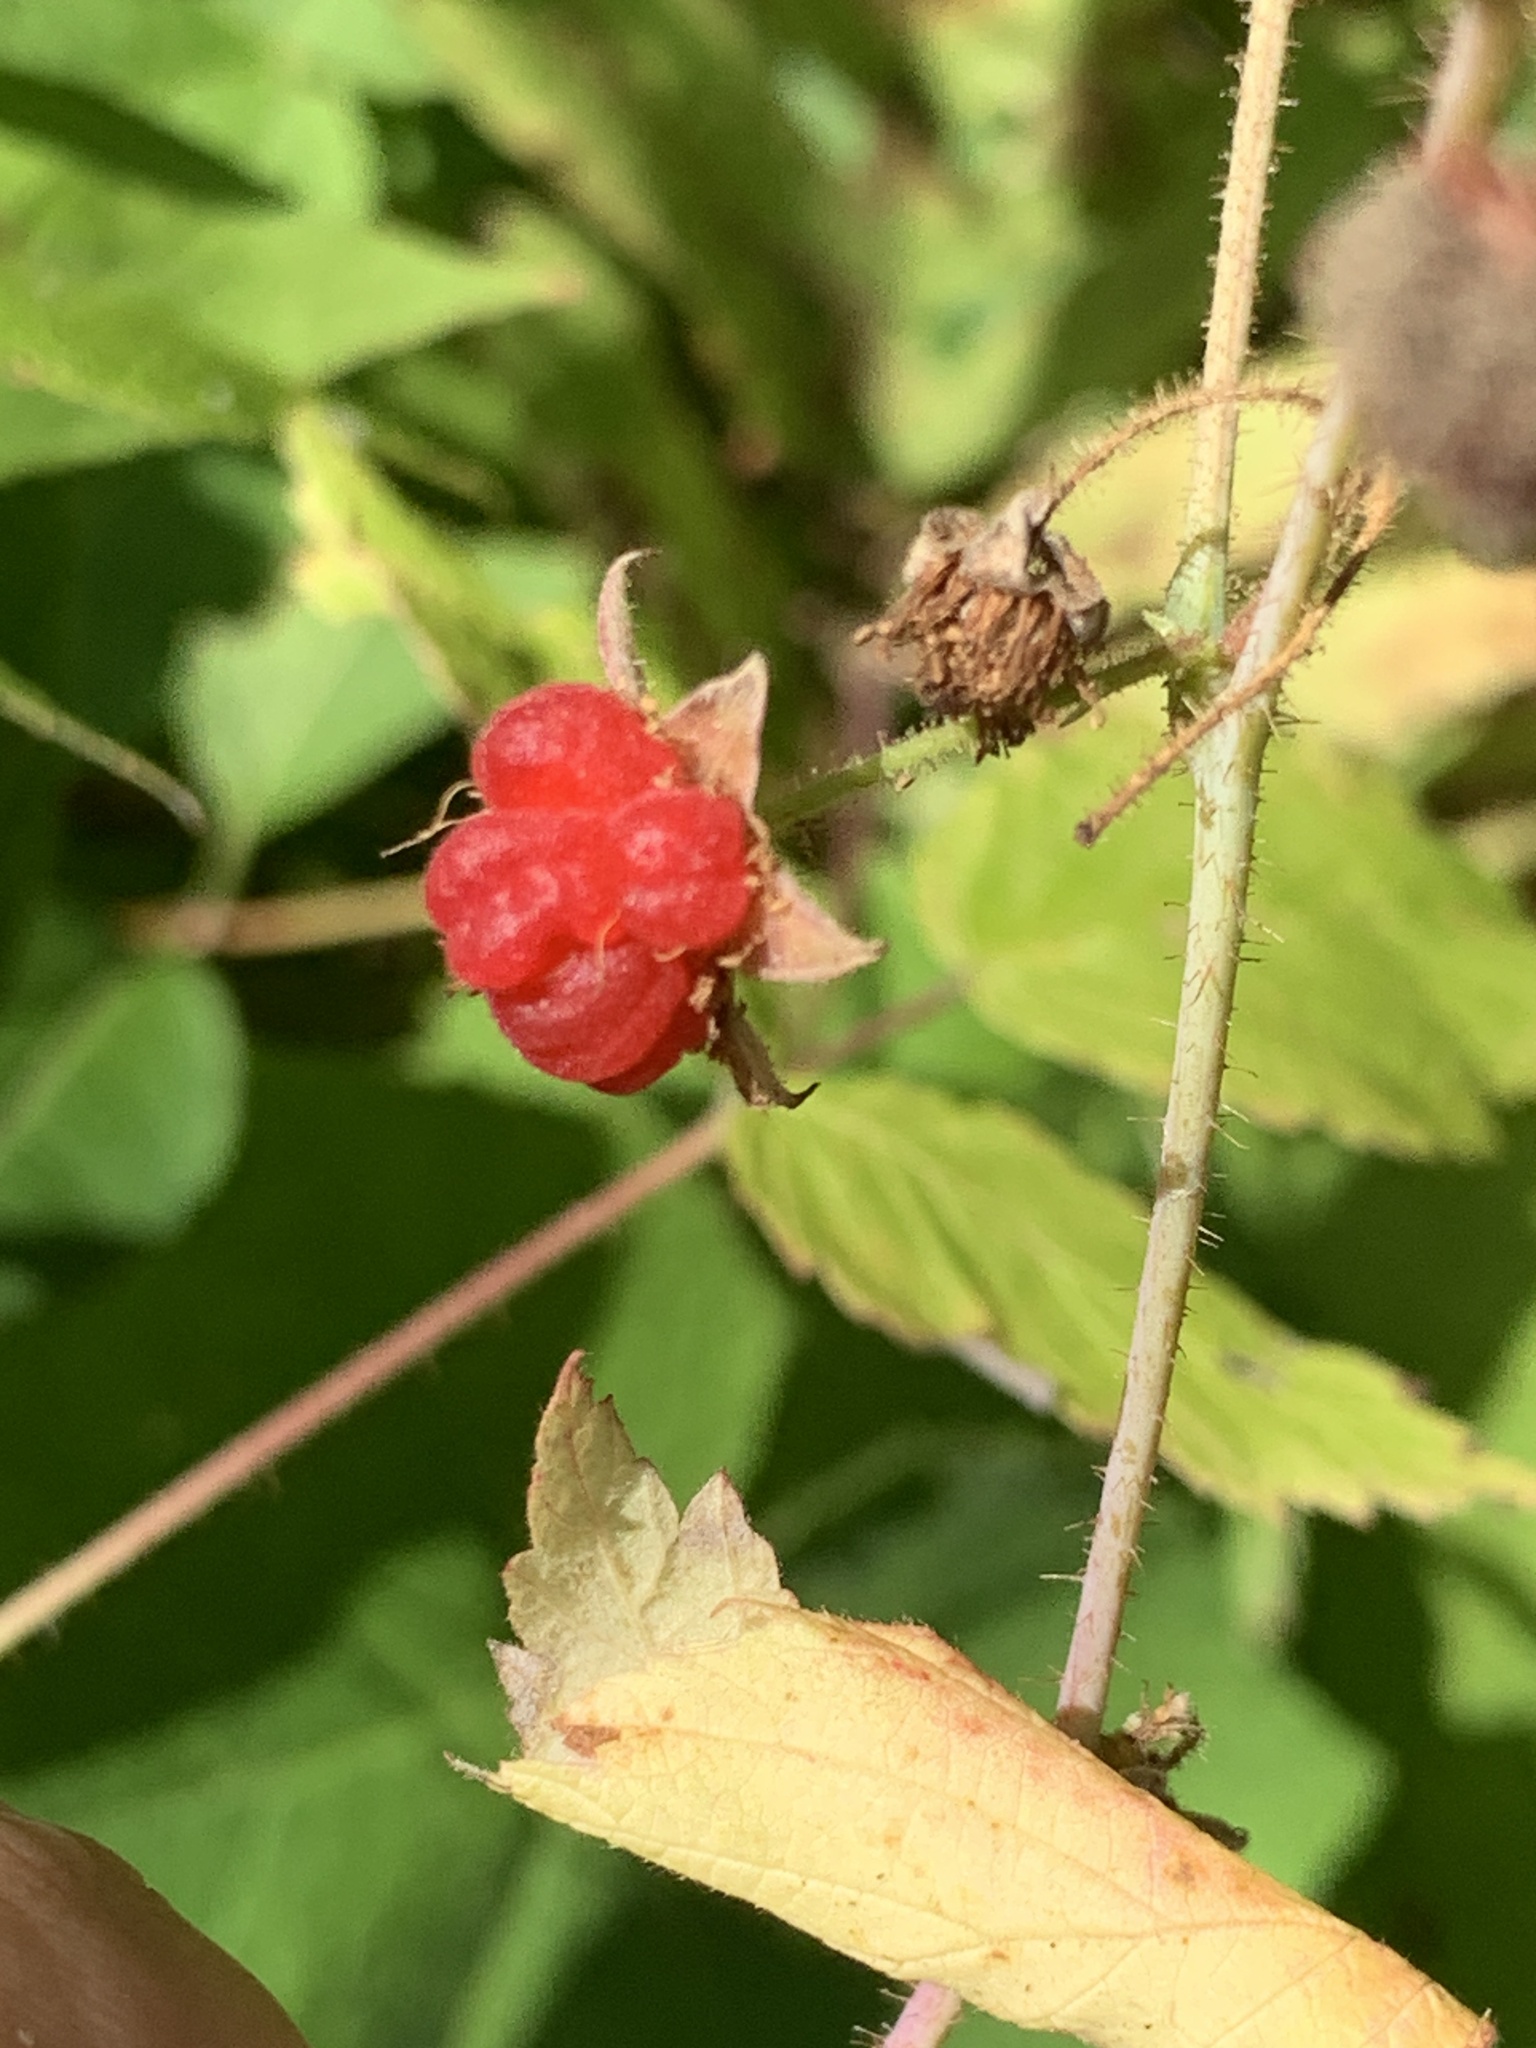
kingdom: Plantae
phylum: Tracheophyta
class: Magnoliopsida
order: Rosales
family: Rosaceae
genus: Rubus
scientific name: Rubus idaeus
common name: Raspberry
